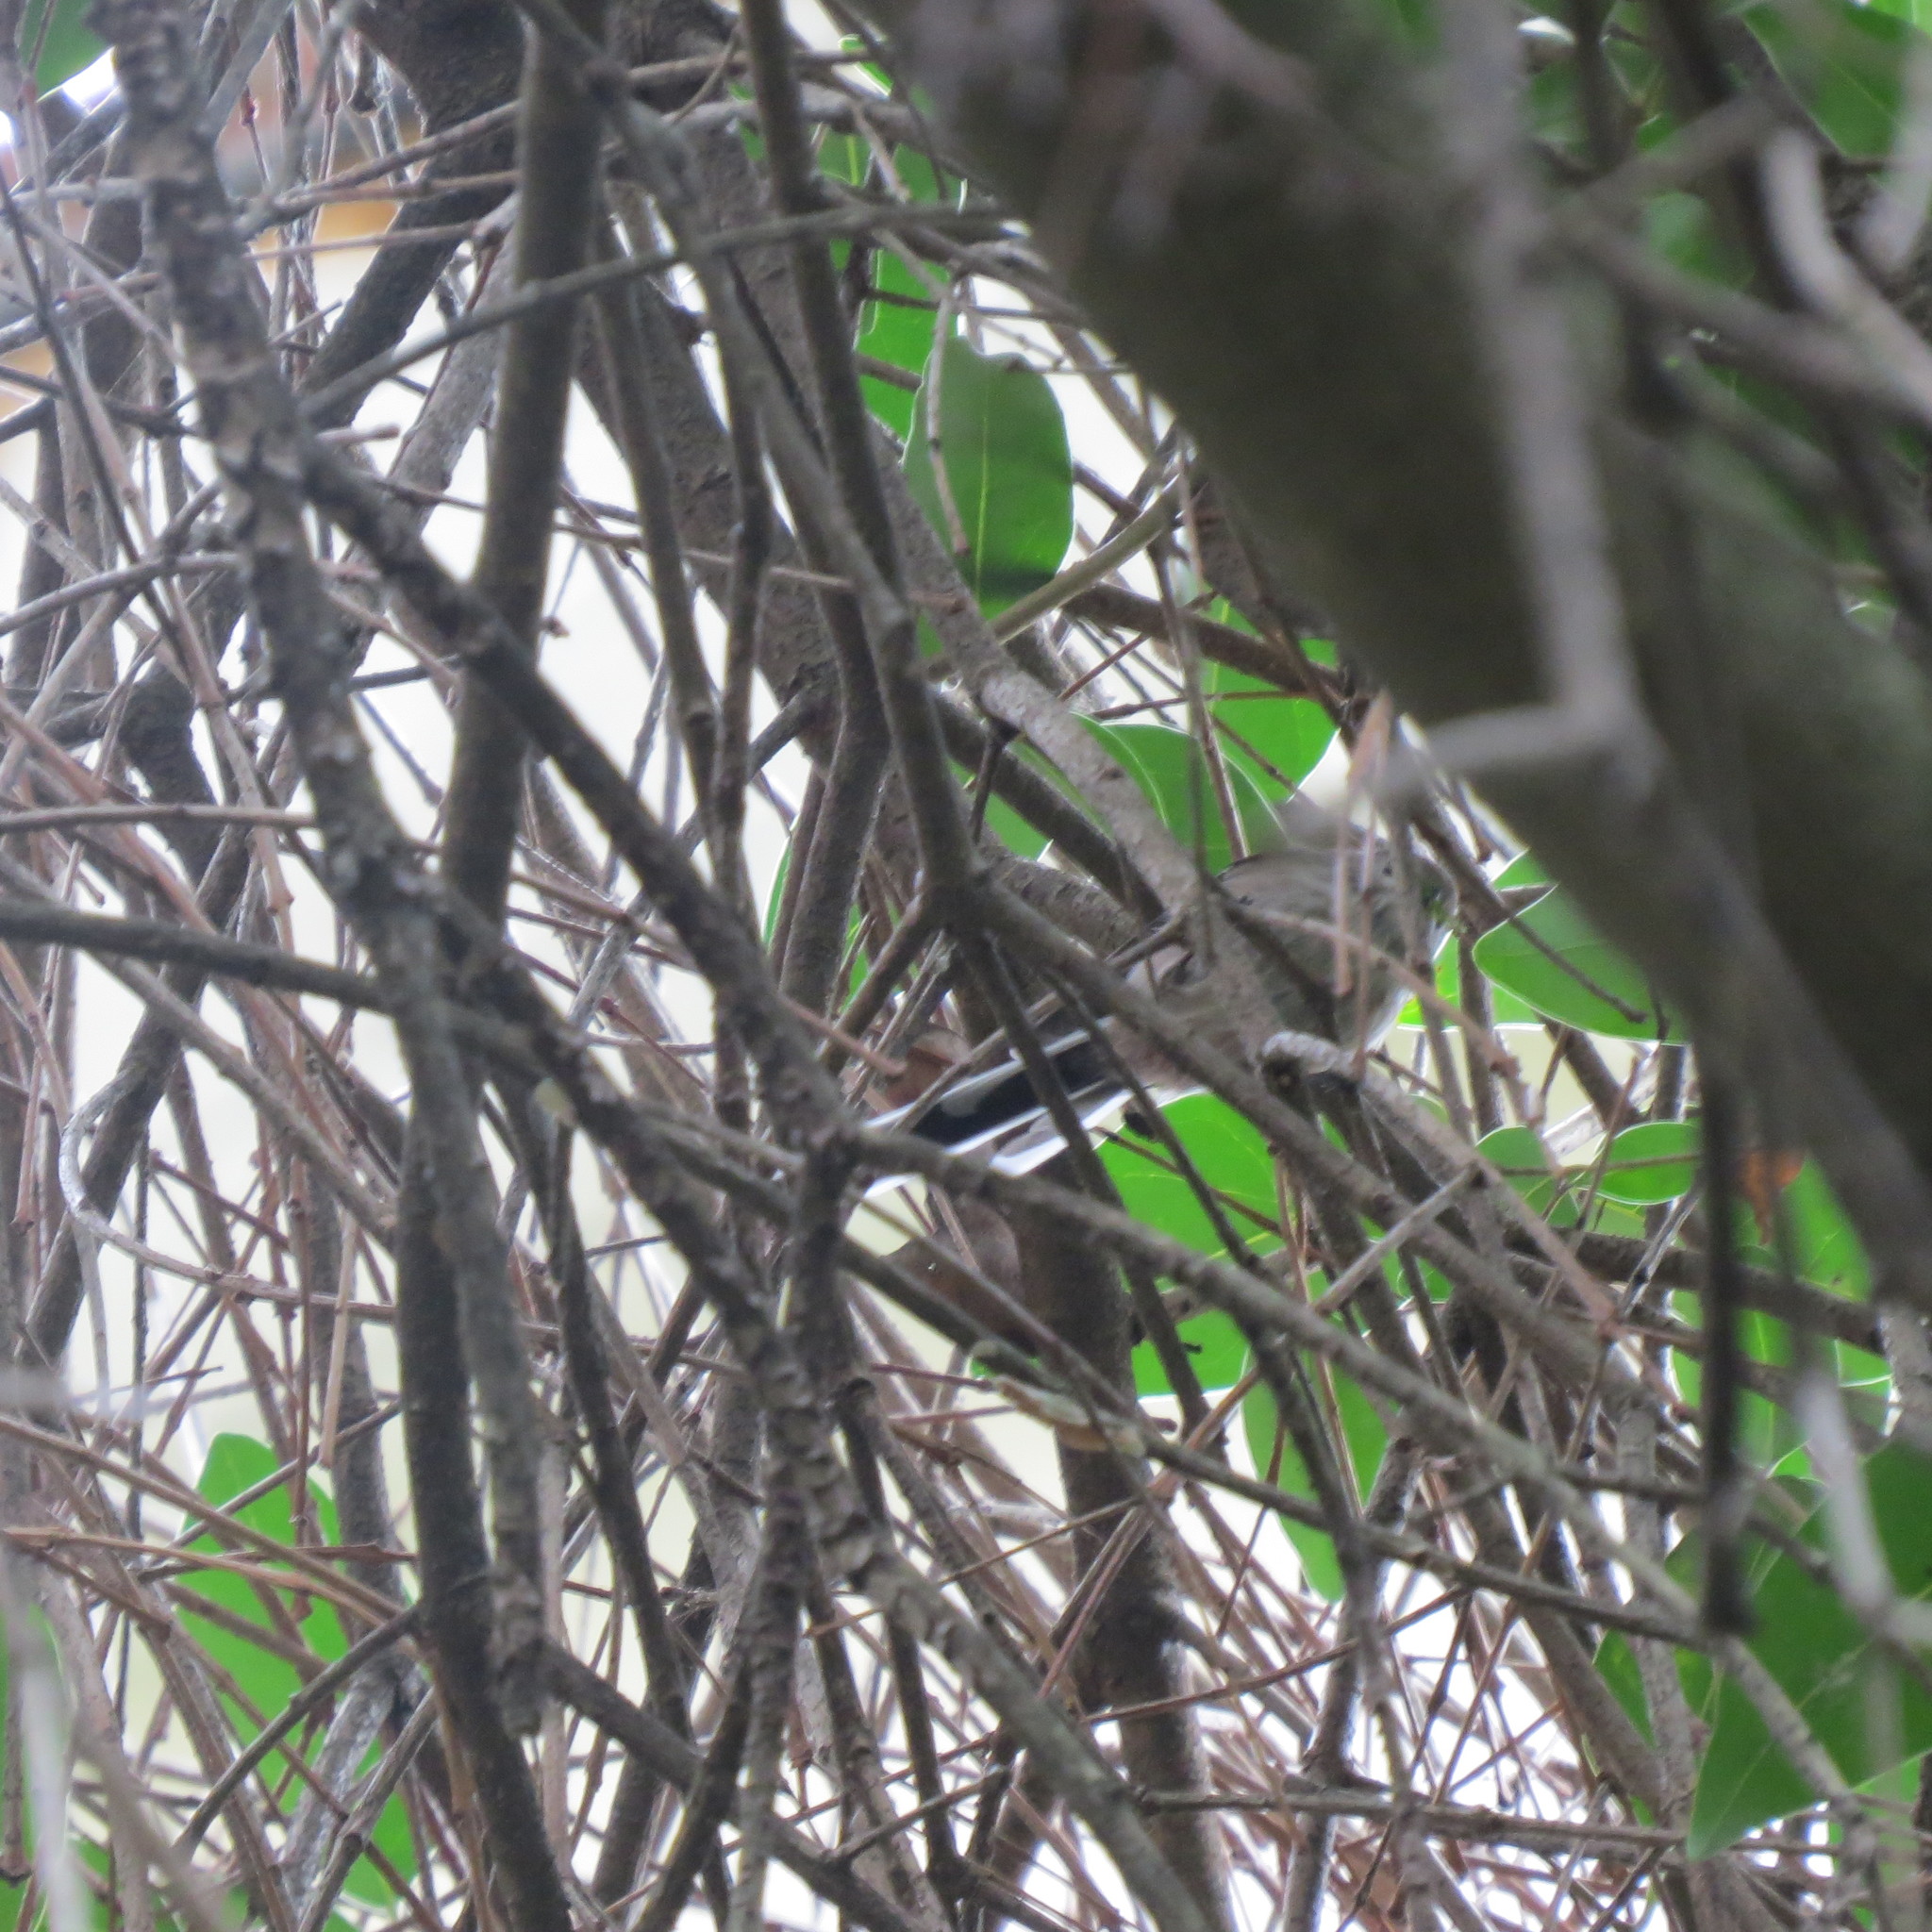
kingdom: Animalia
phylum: Chordata
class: Aves
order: Passeriformes
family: Aegithalidae
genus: Aegithalos
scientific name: Aegithalos caudatus
